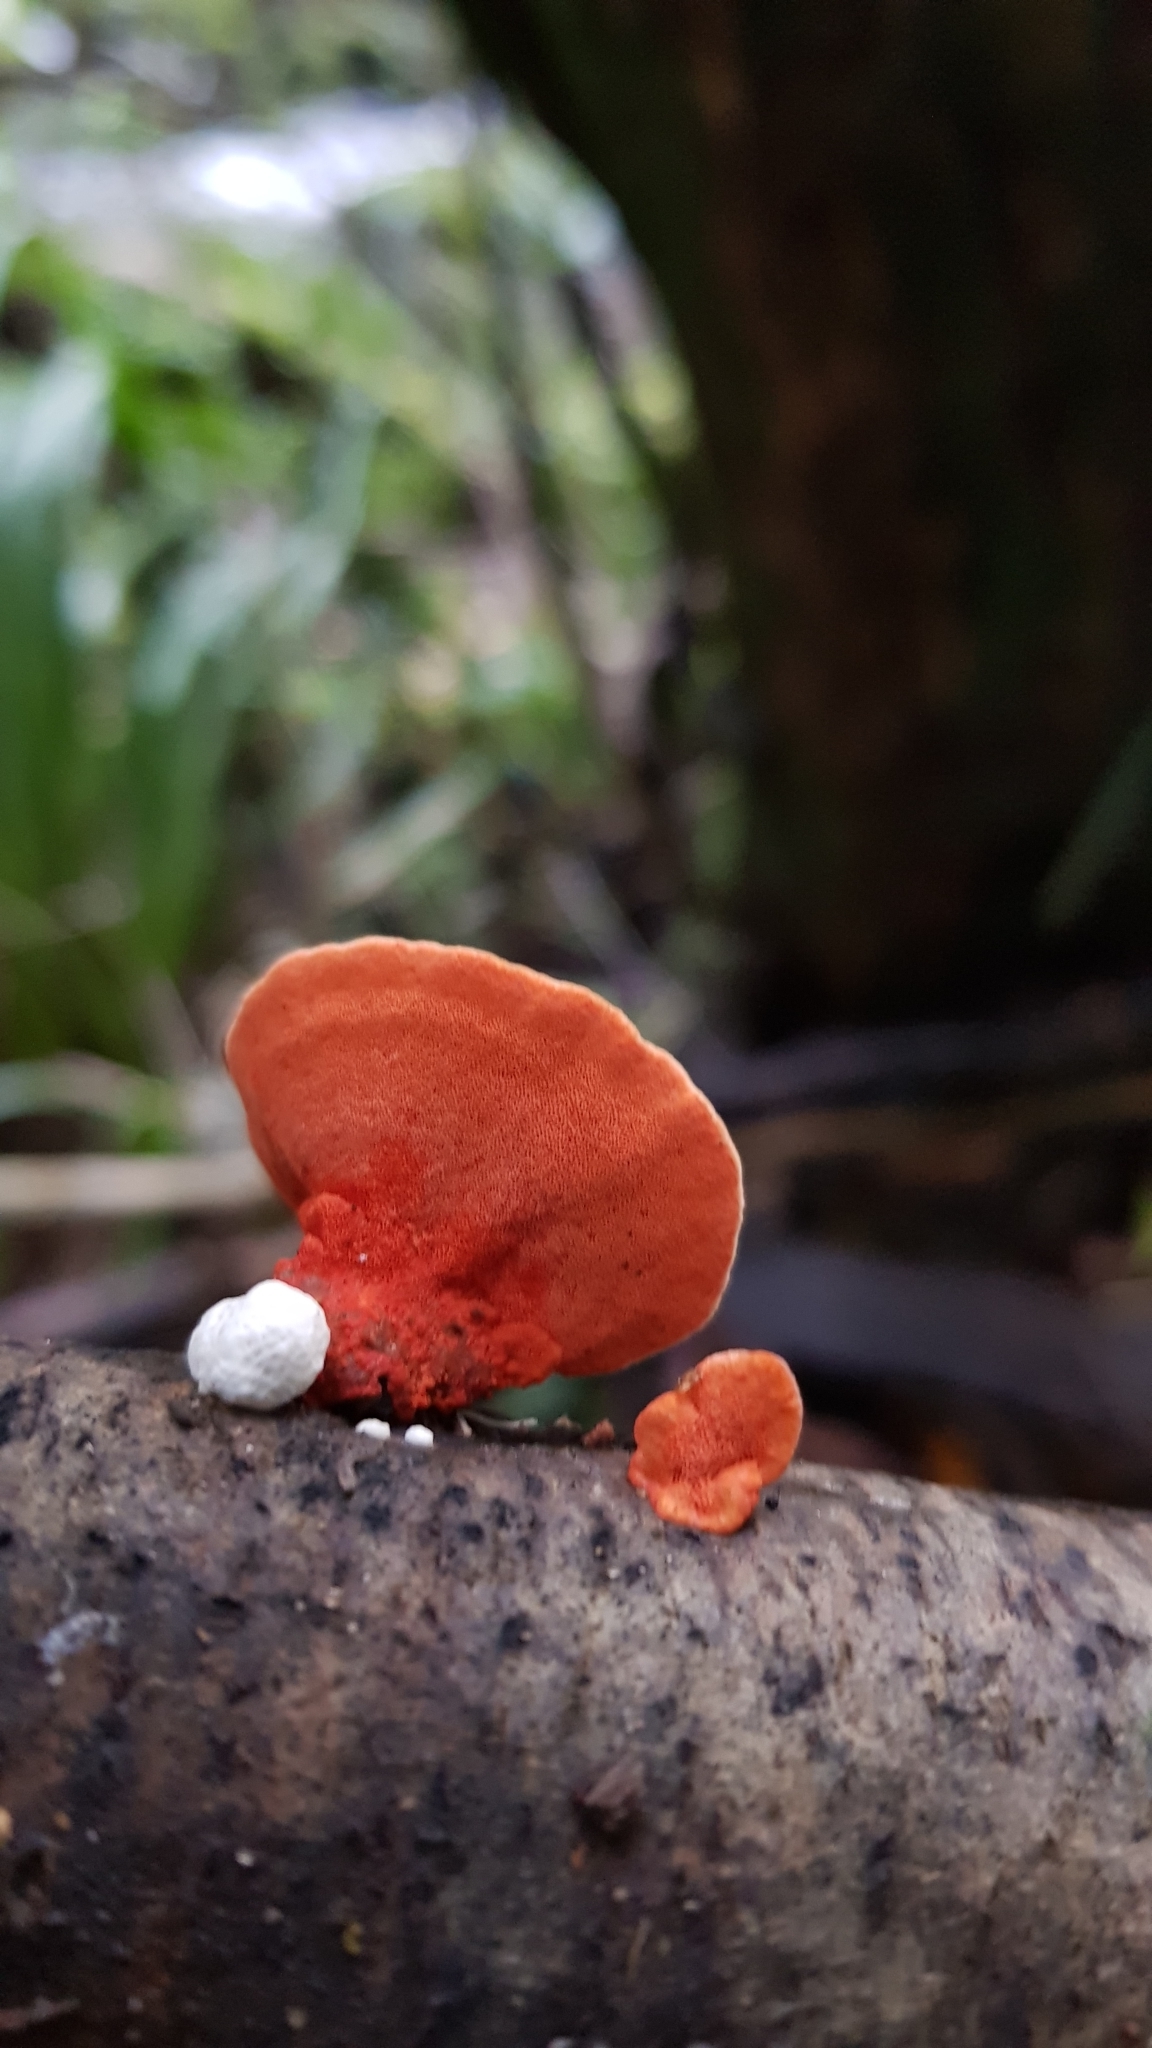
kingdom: Fungi
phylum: Basidiomycota
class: Agaricomycetes
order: Polyporales
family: Polyporaceae
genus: Trametes
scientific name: Trametes coccinea
